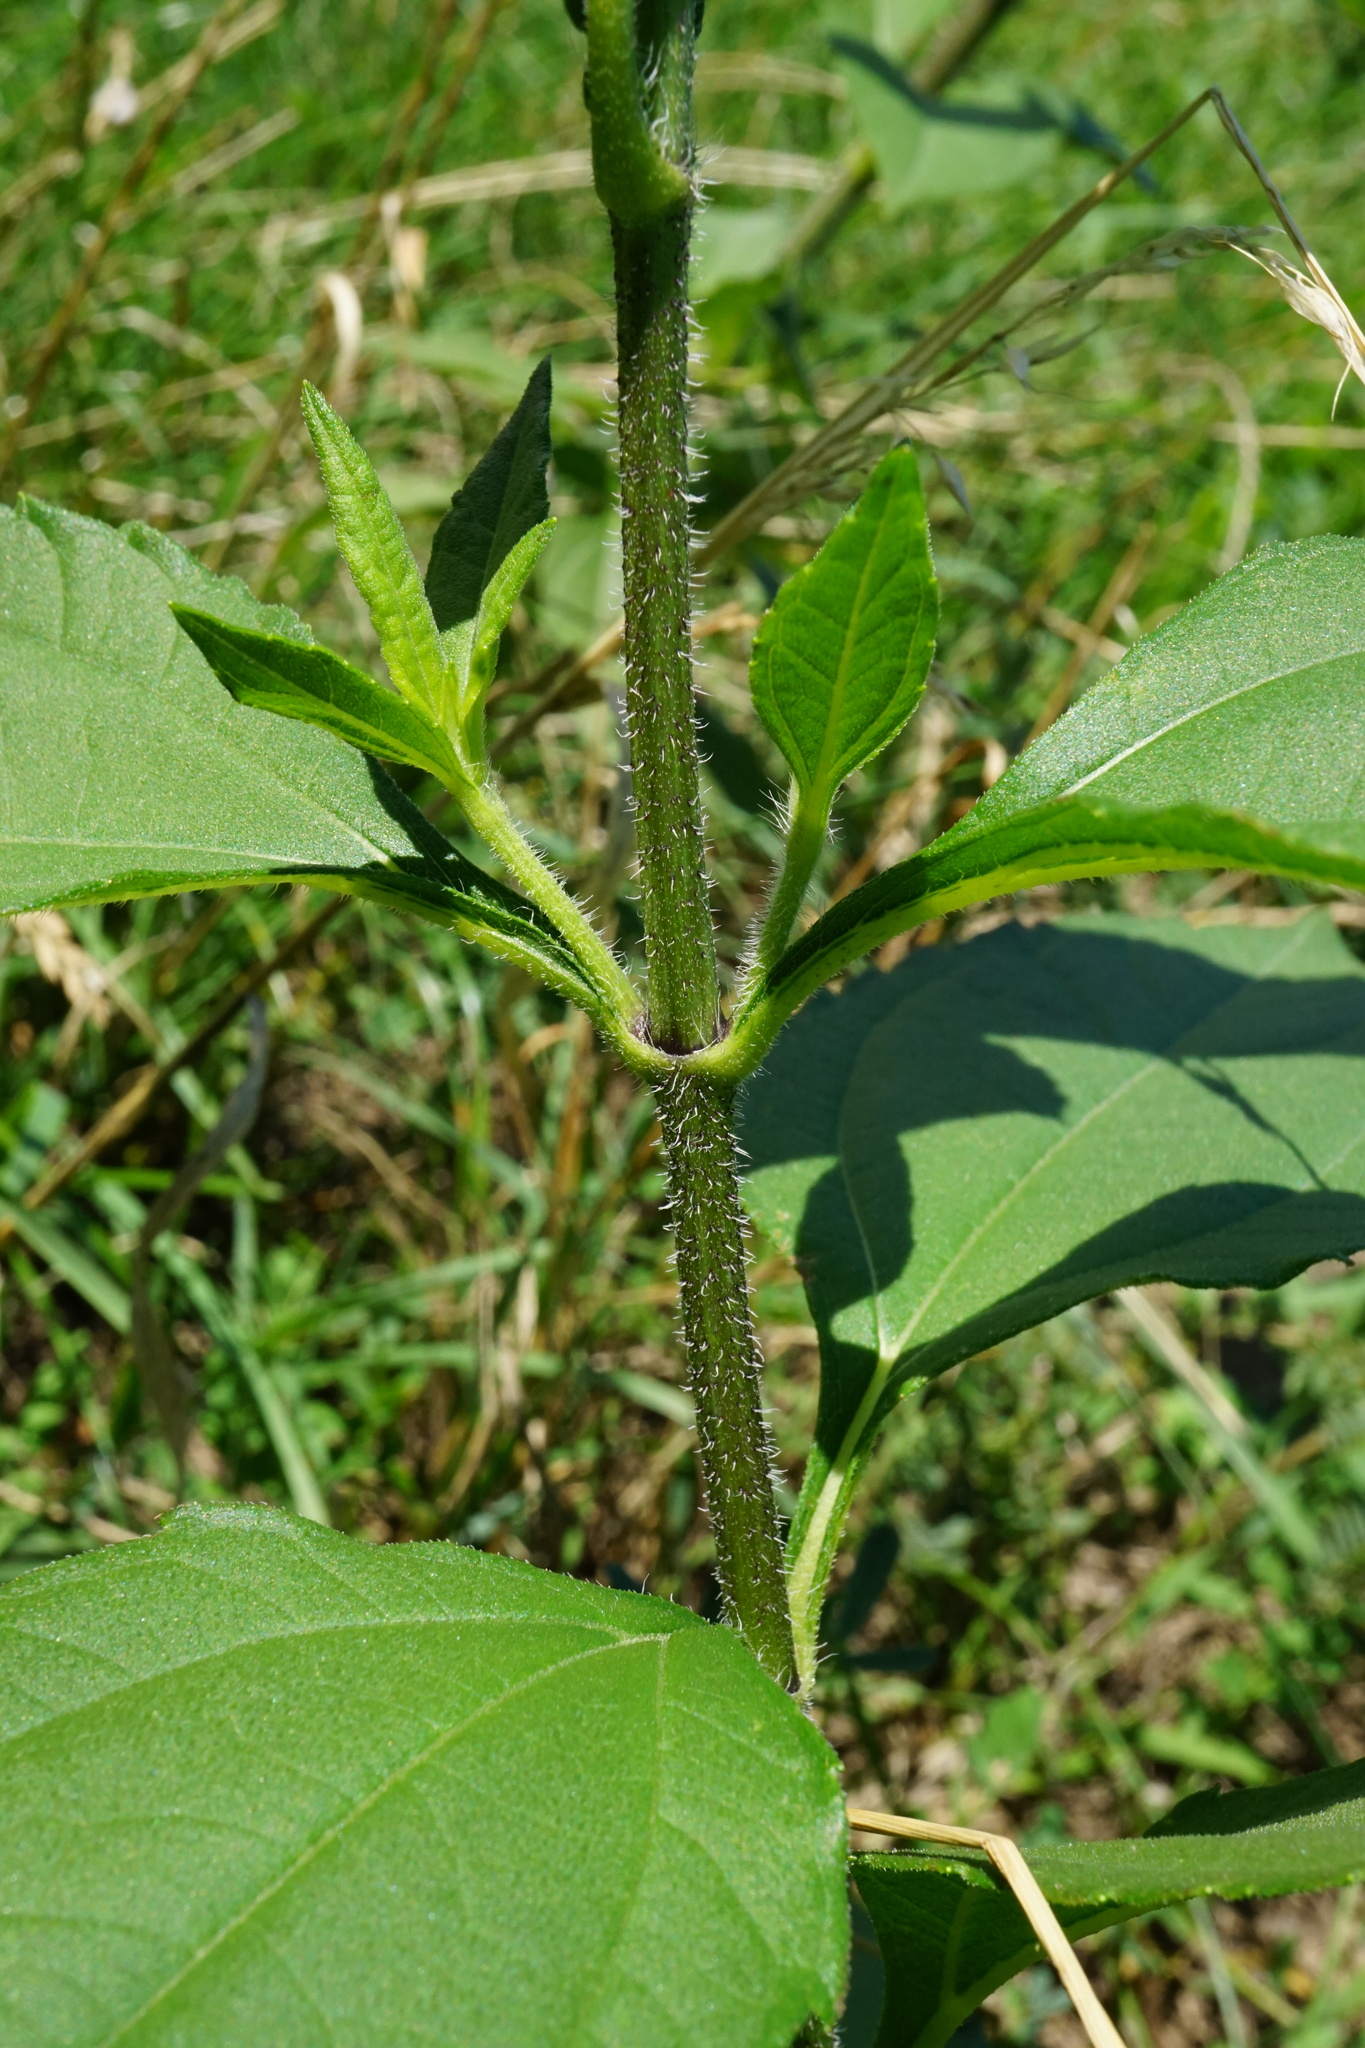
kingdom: Plantae
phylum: Tracheophyta
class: Magnoliopsida
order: Asterales
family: Asteraceae
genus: Helianthus
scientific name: Helianthus tuberosus
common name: Jerusalem artichoke
